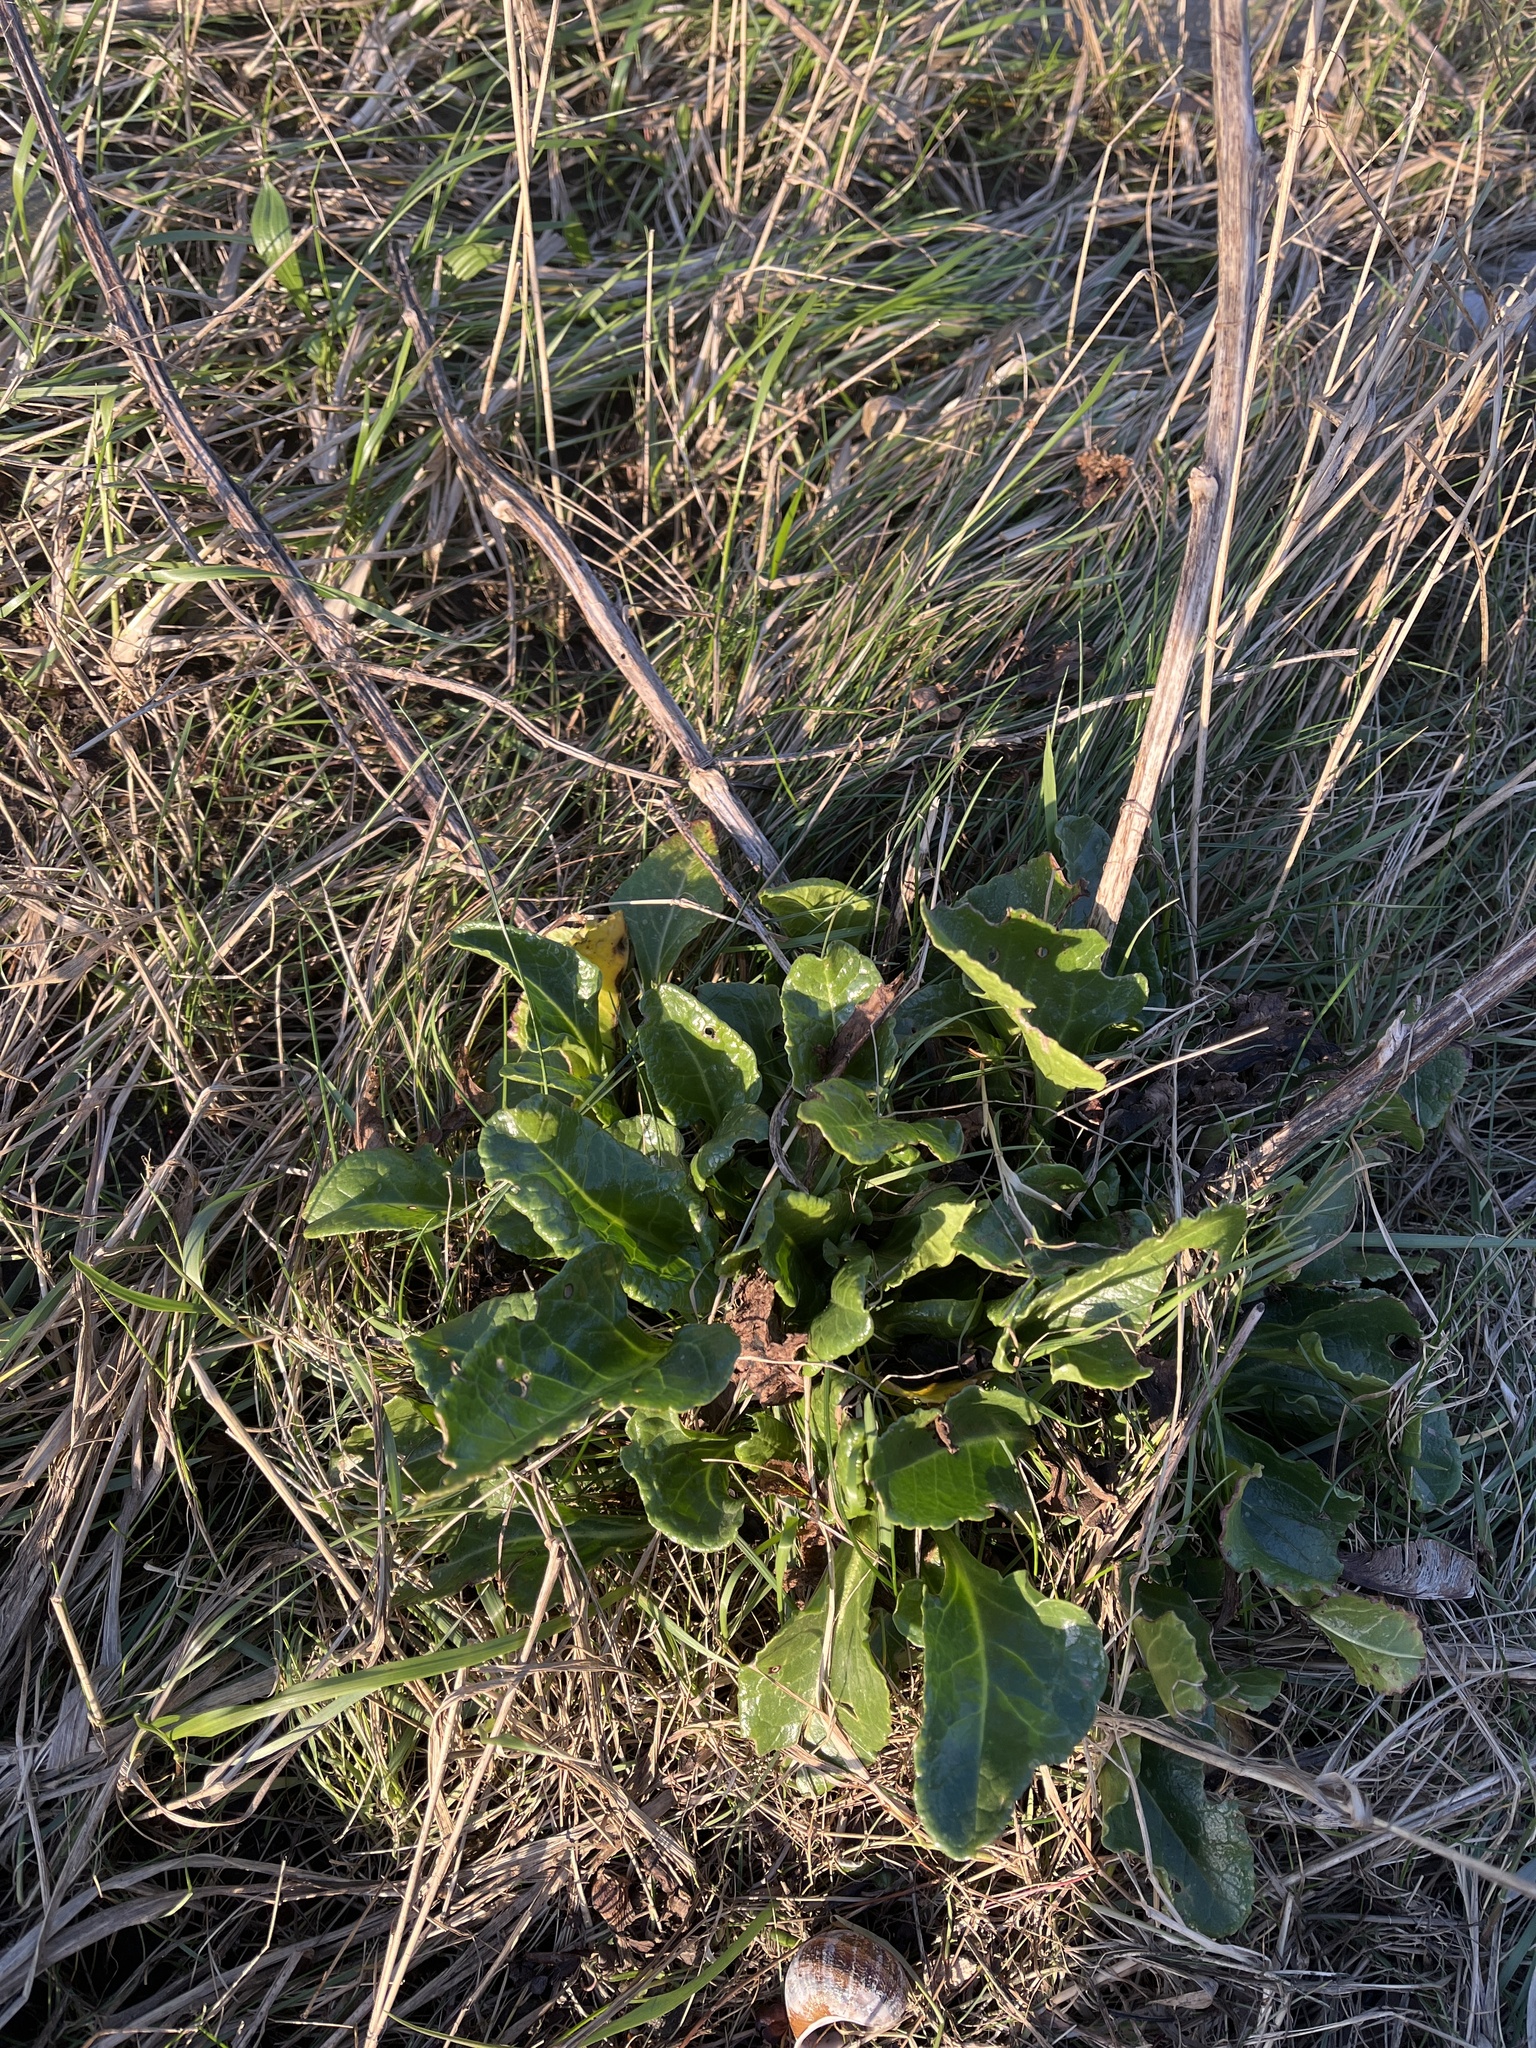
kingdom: Plantae
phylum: Tracheophyta
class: Magnoliopsida
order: Caryophyllales
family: Amaranthaceae
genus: Beta
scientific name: Beta vulgaris
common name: Beet
